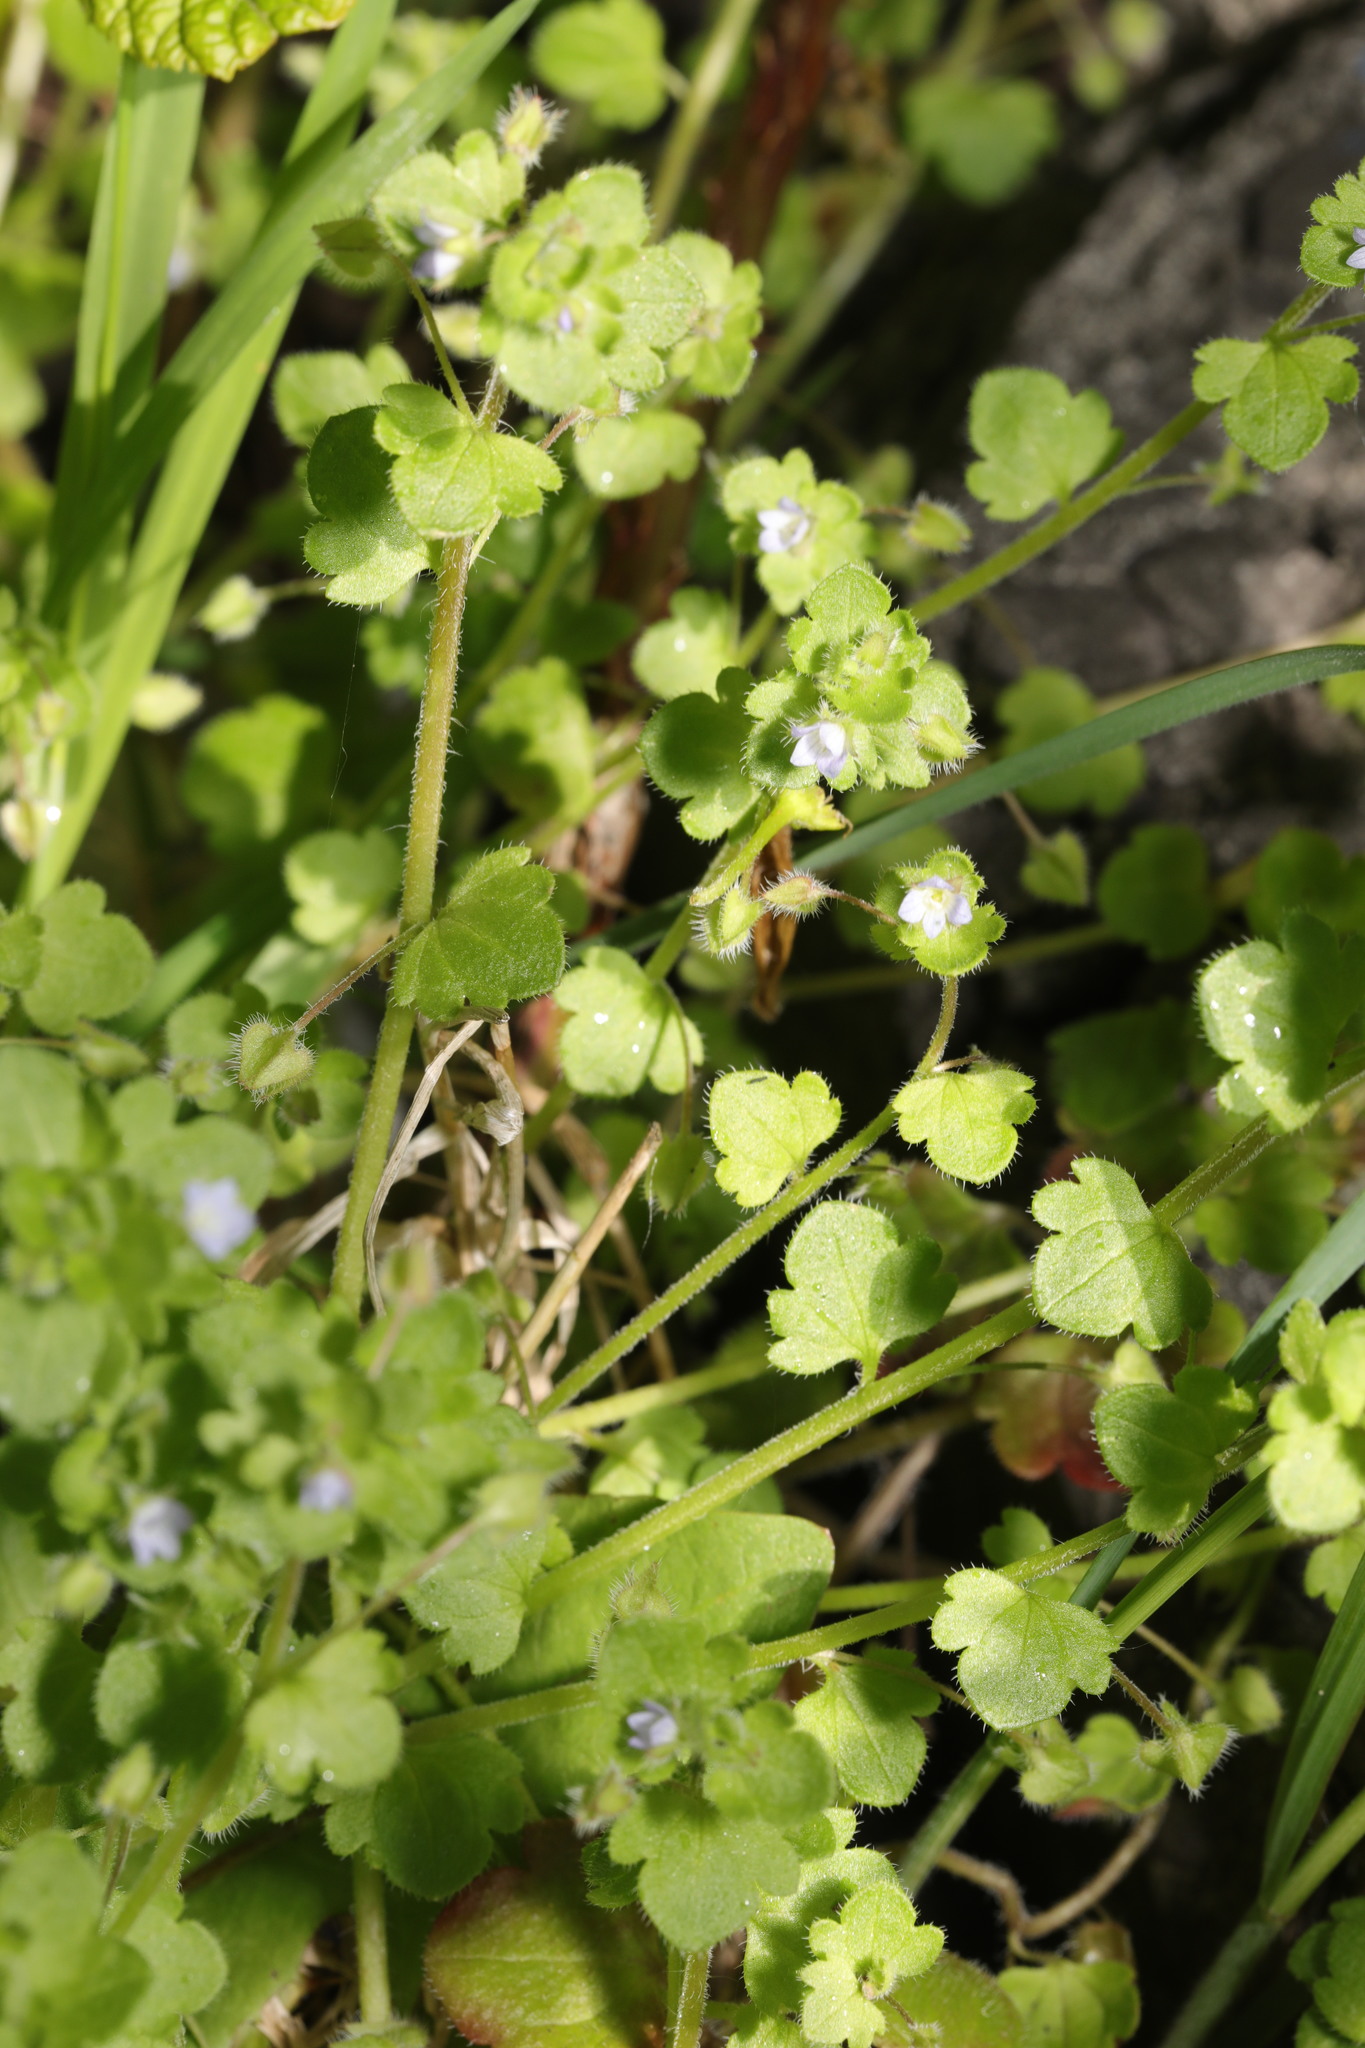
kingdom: Plantae
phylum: Tracheophyta
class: Magnoliopsida
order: Lamiales
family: Plantaginaceae
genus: Veronica
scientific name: Veronica sublobata
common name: False ivy-leaved speedwell
